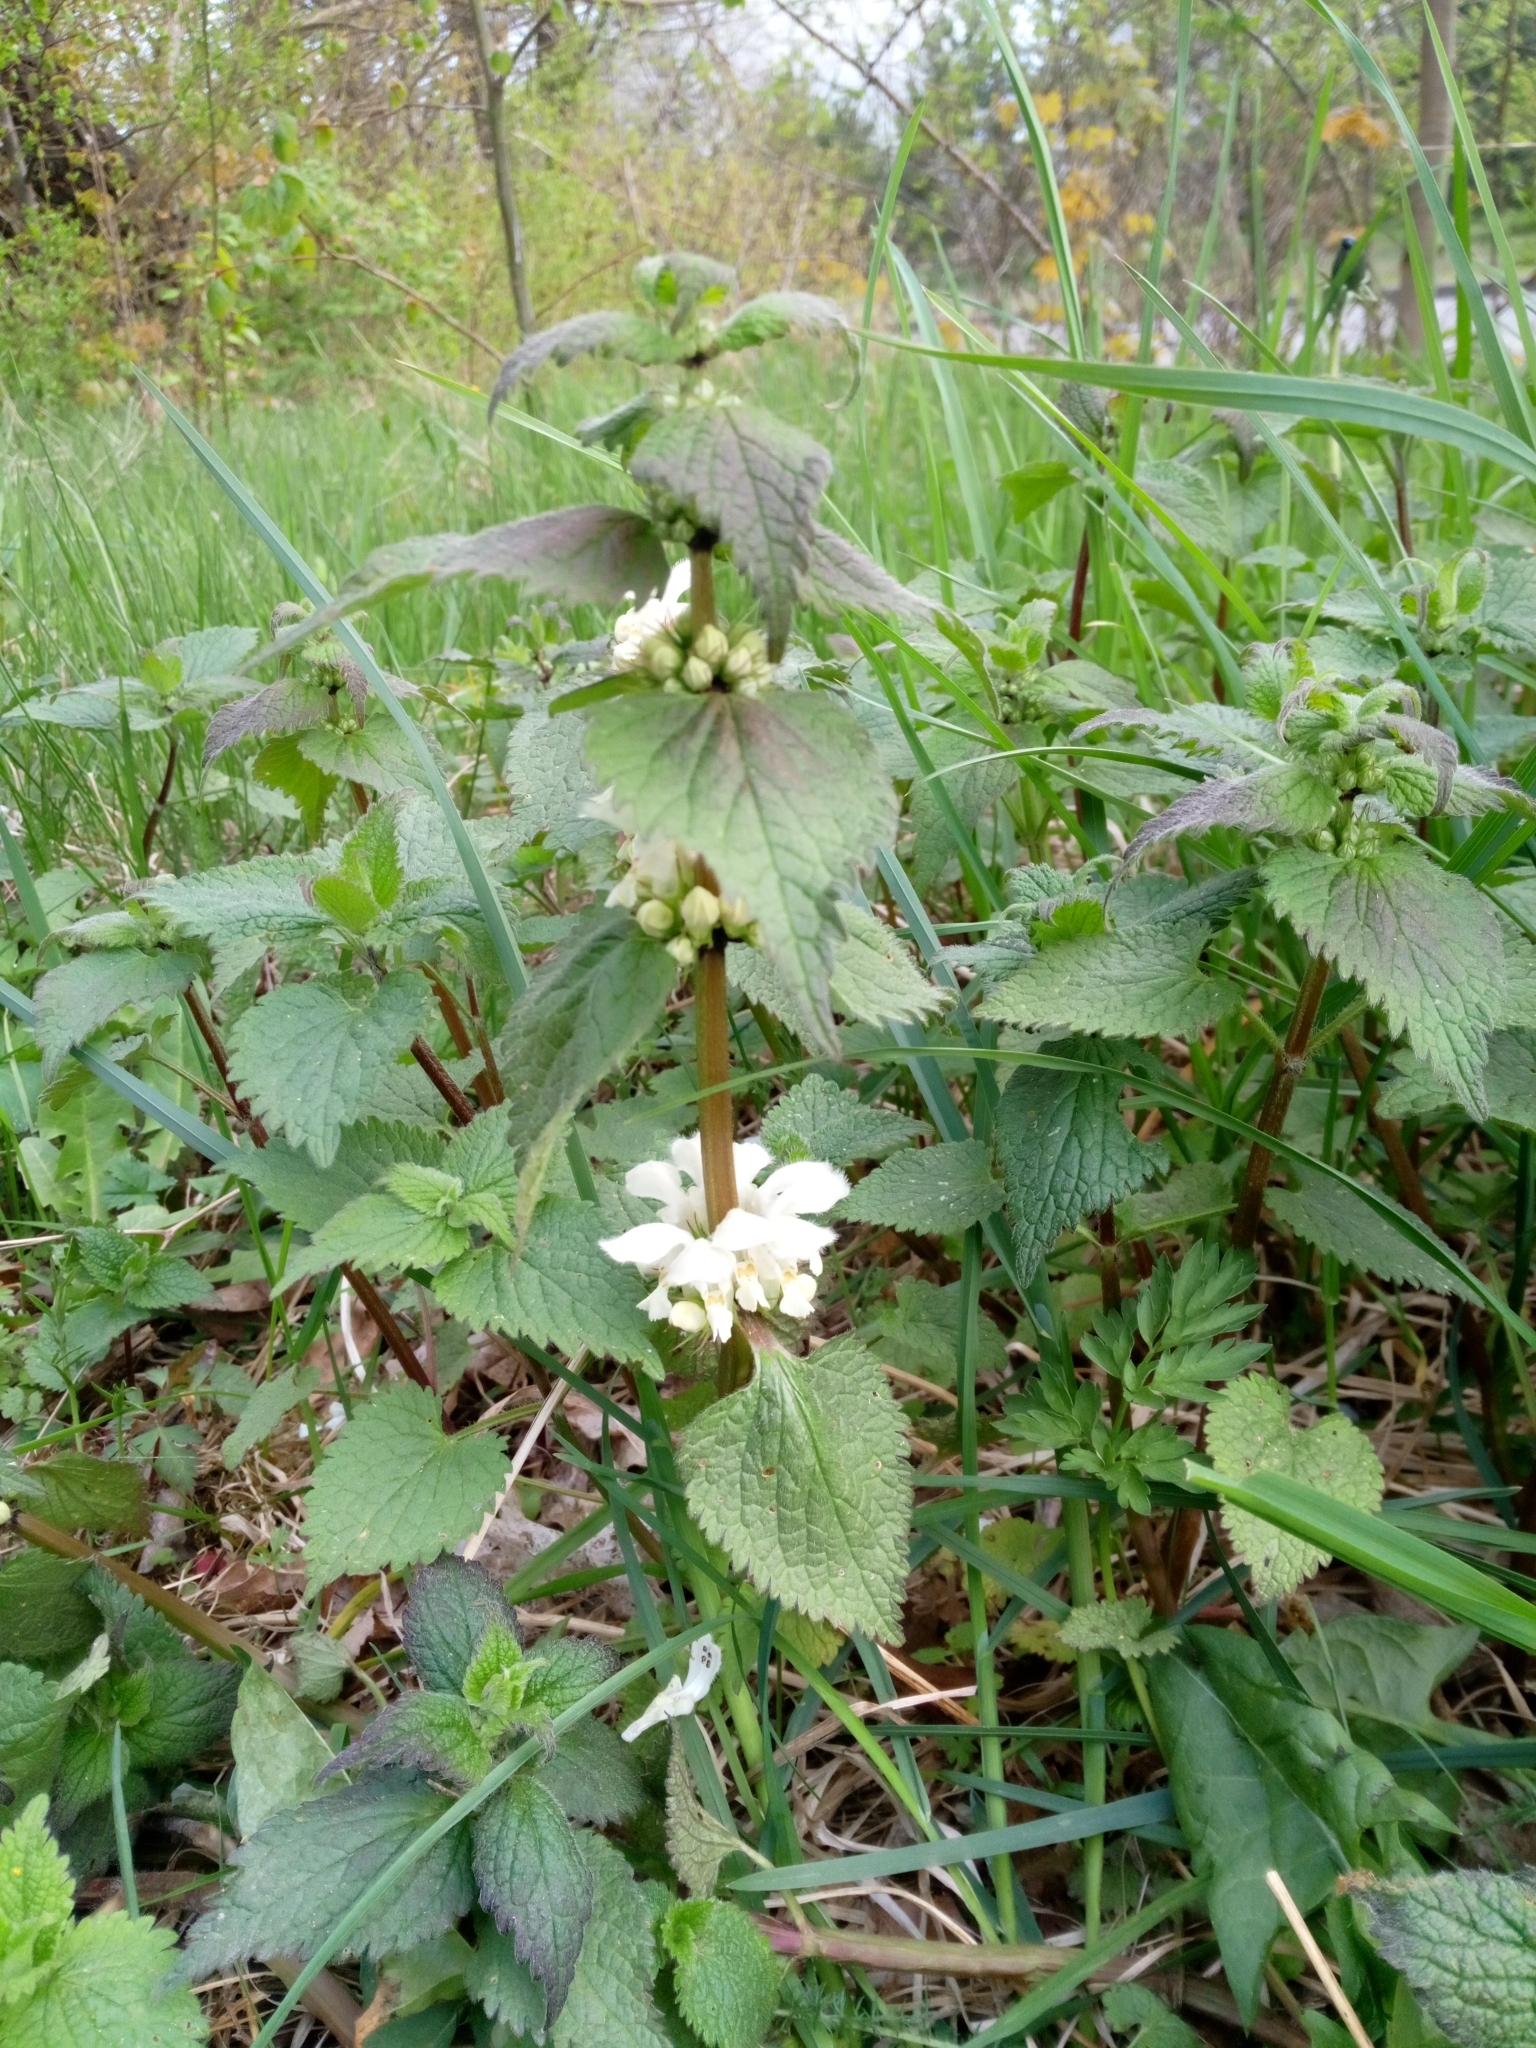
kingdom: Plantae
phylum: Tracheophyta
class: Magnoliopsida
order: Lamiales
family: Lamiaceae
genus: Lamium
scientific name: Lamium album
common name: White dead-nettle
